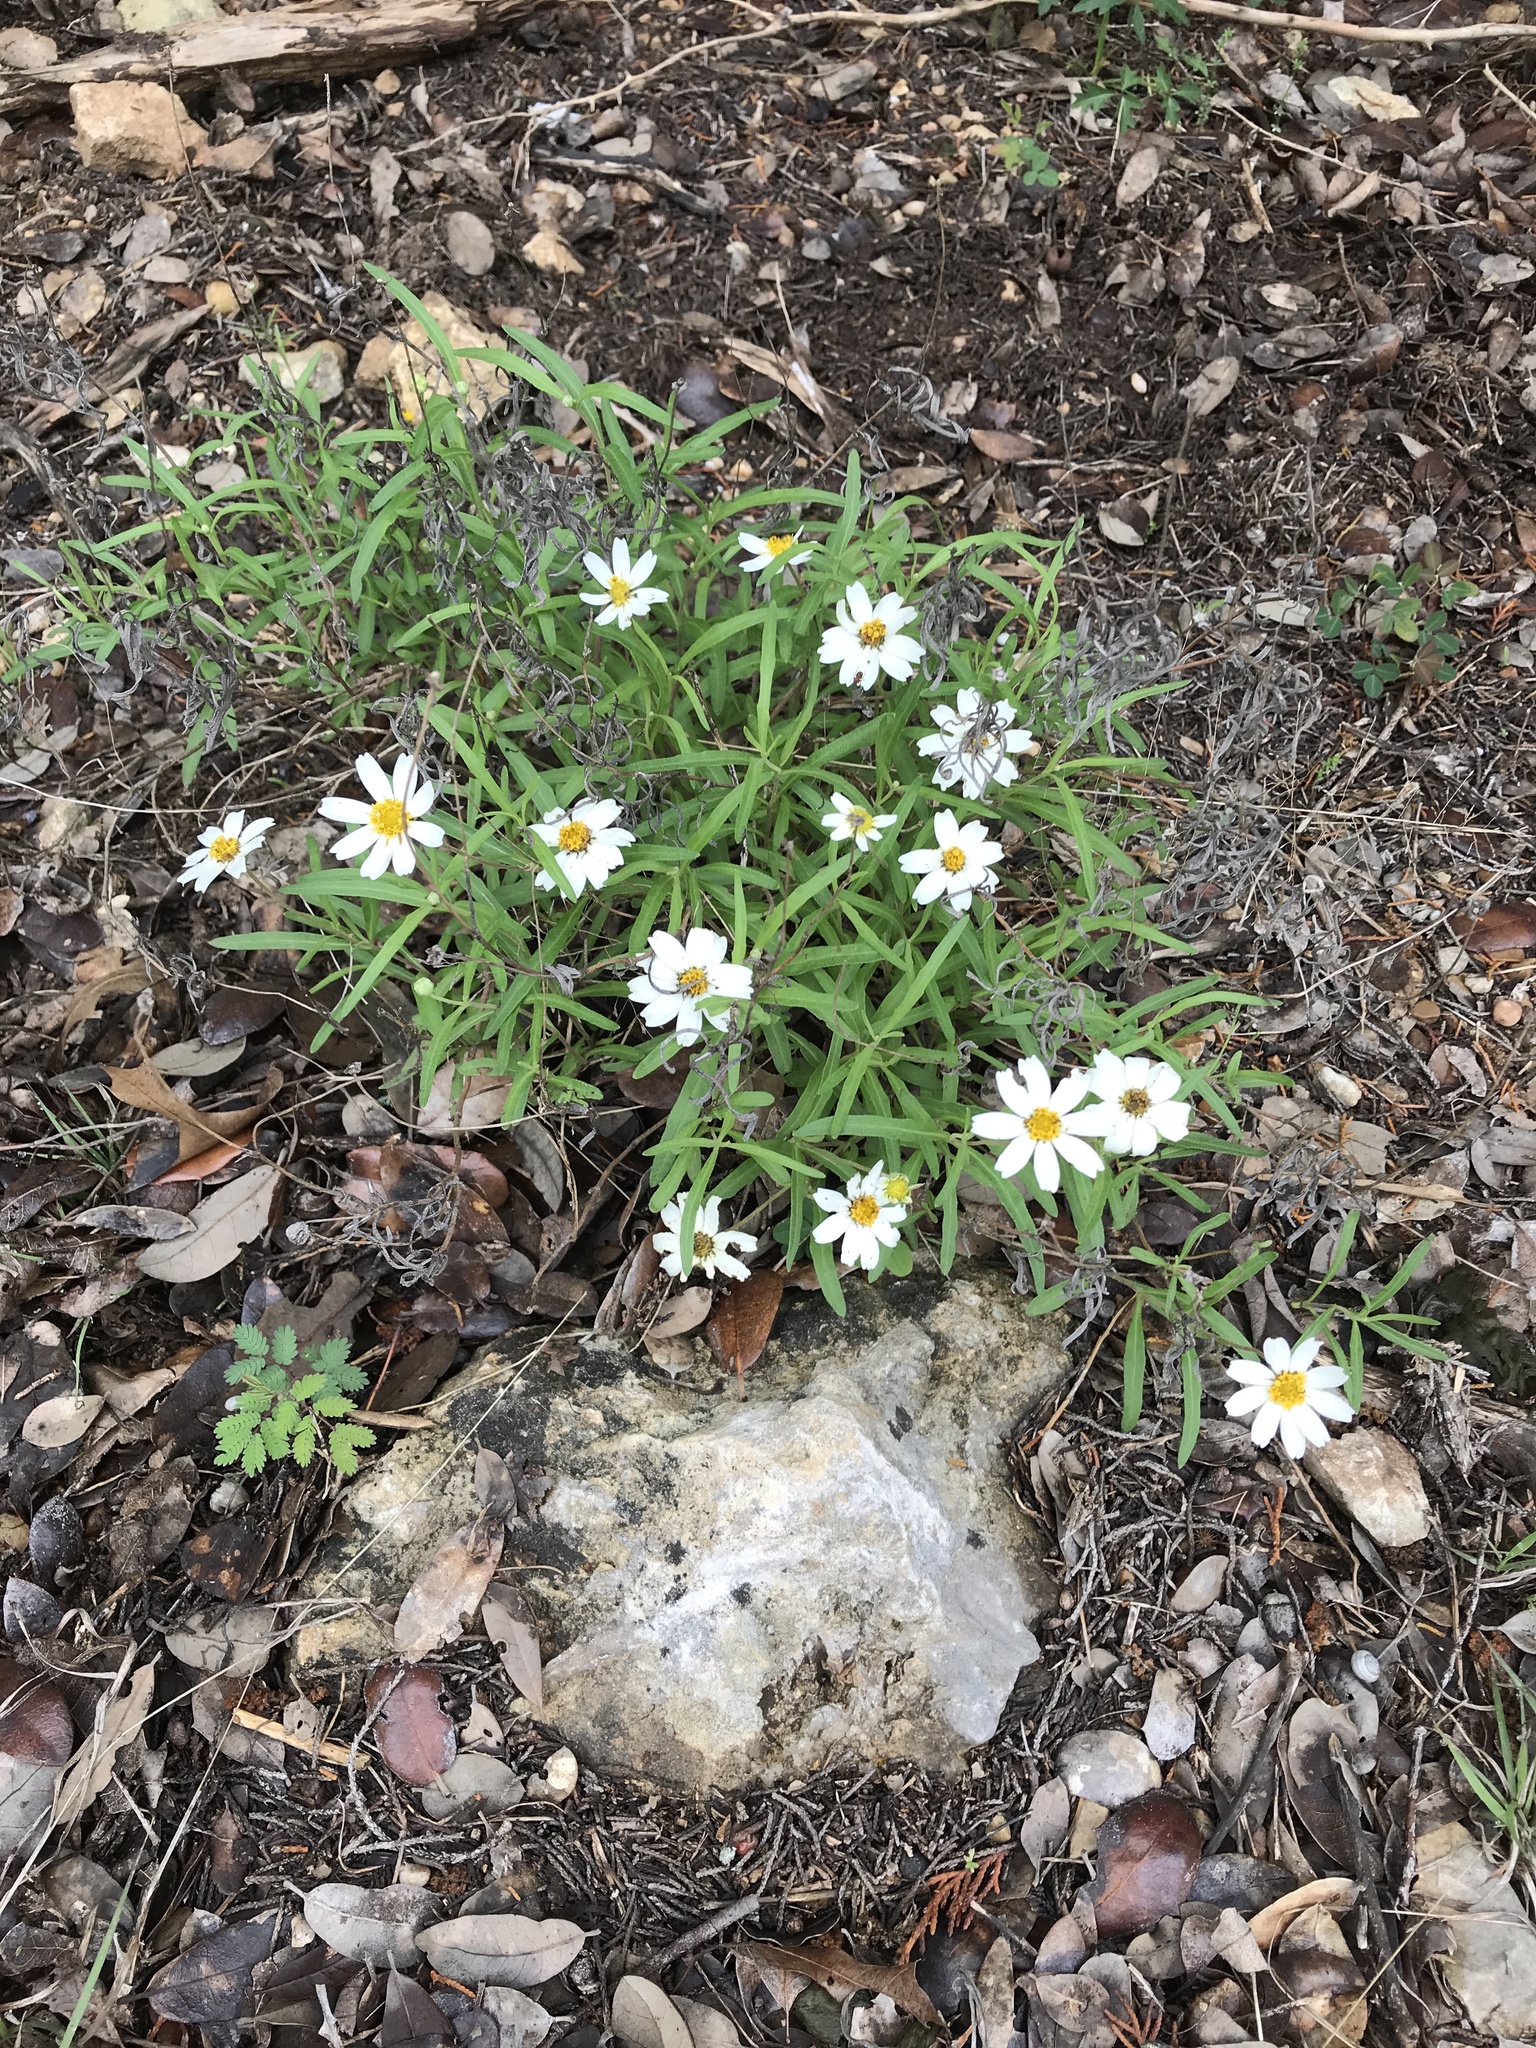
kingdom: Plantae
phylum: Tracheophyta
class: Magnoliopsida
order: Asterales
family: Asteraceae
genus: Melampodium
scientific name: Melampodium leucanthum
